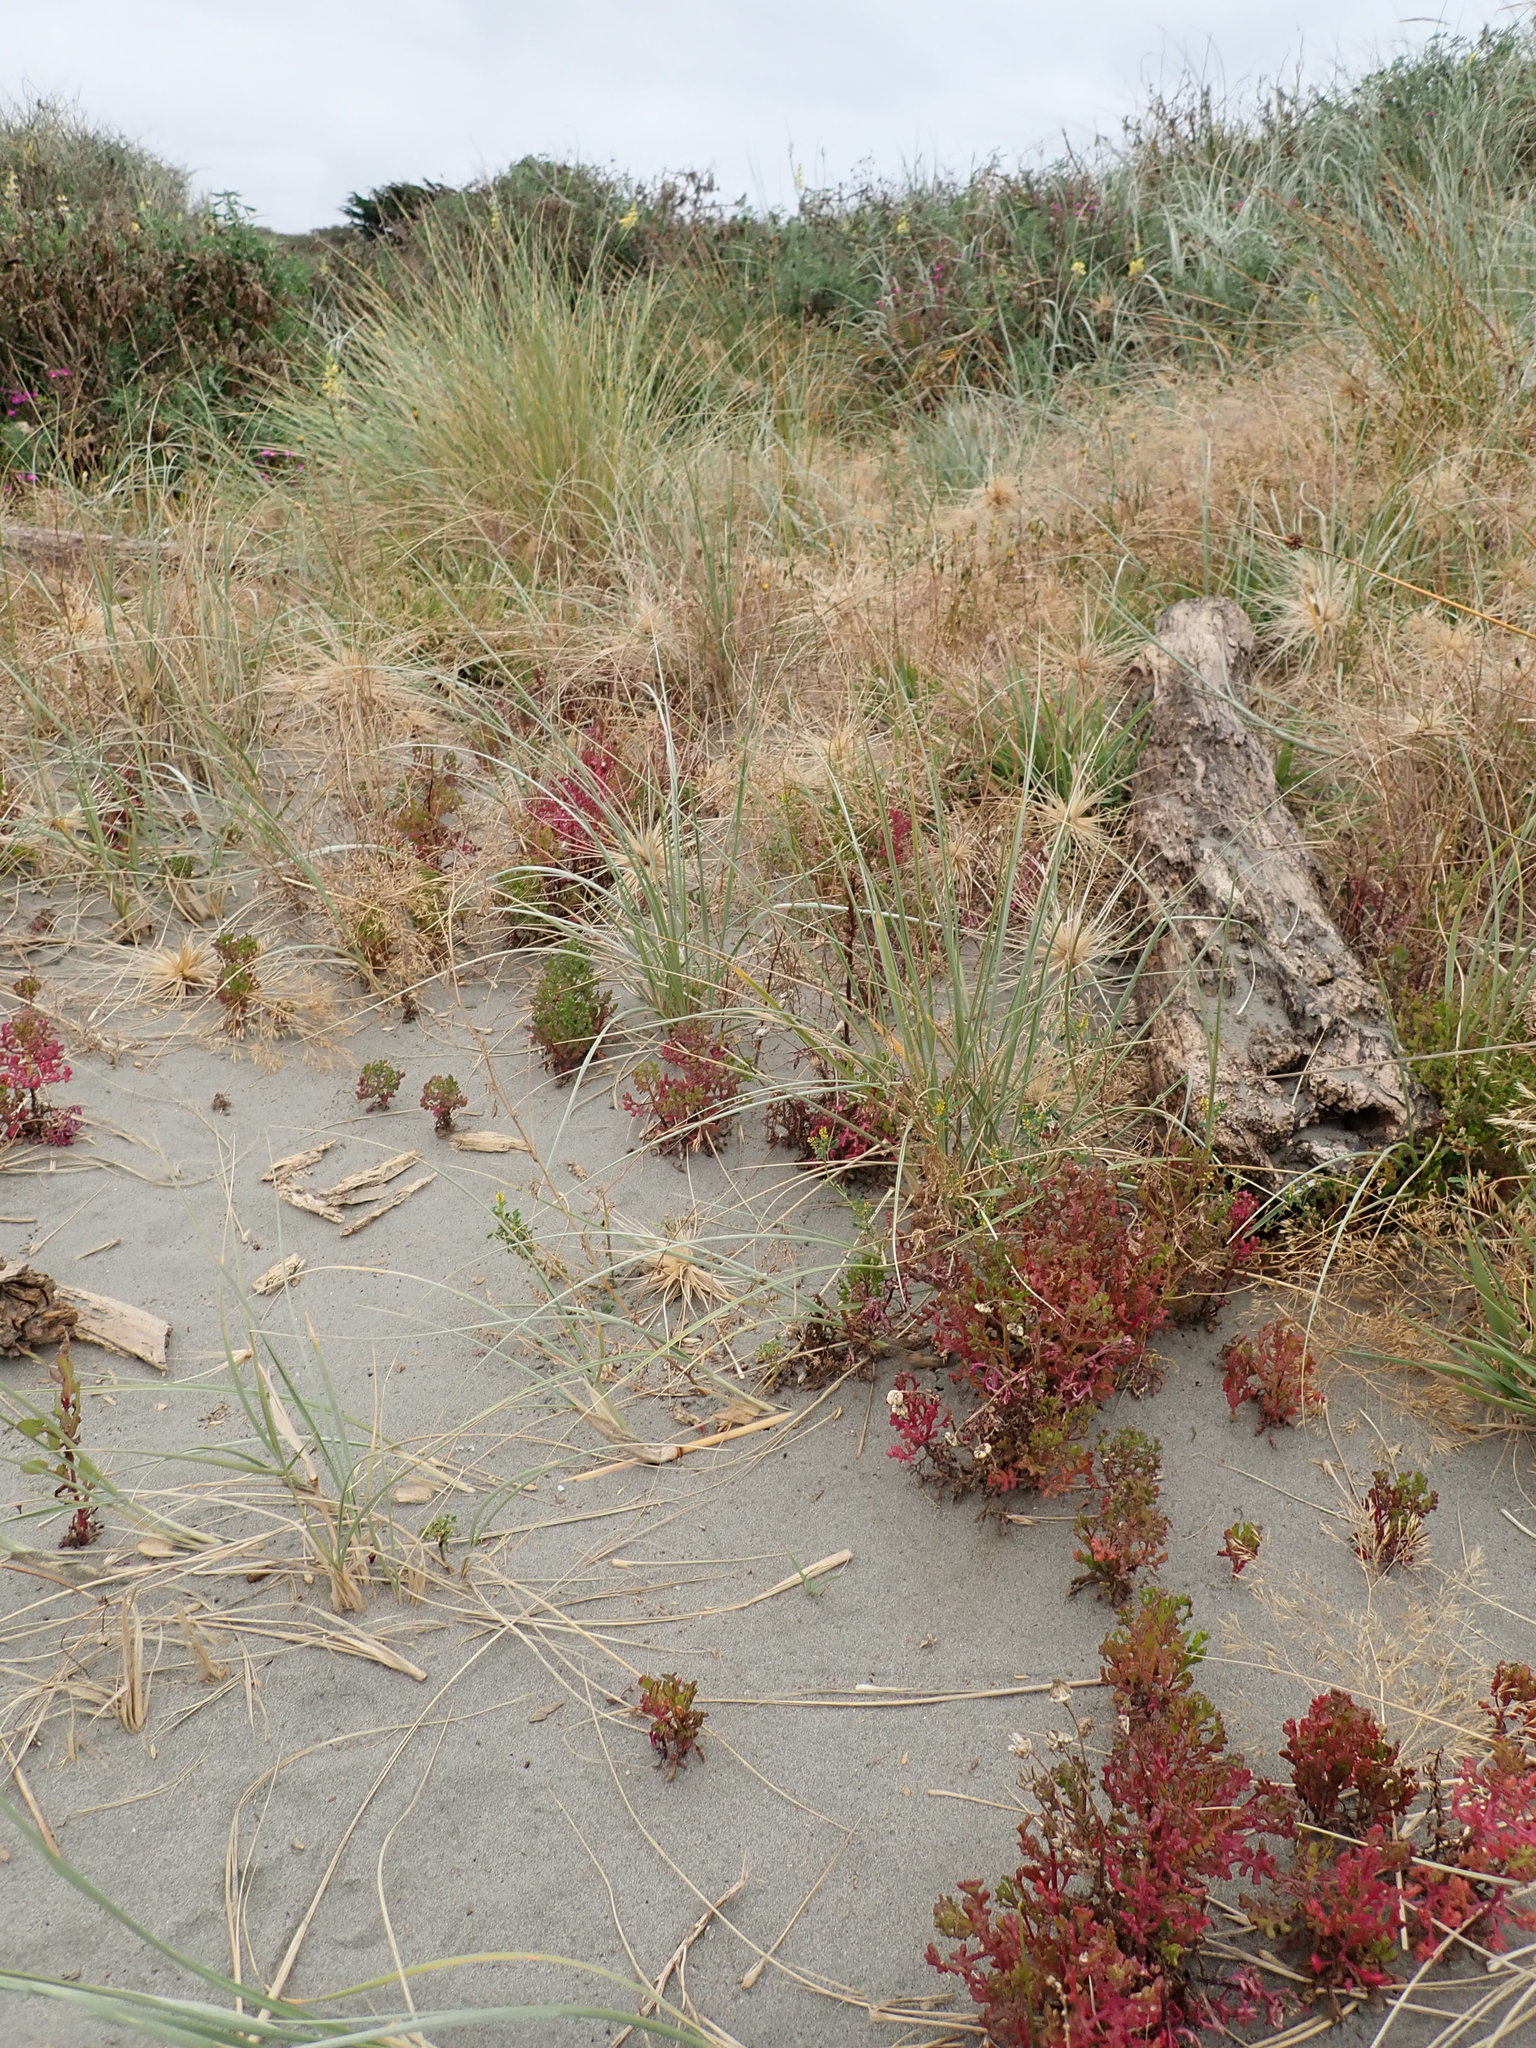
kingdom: Plantae
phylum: Tracheophyta
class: Magnoliopsida
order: Fabales
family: Fabaceae
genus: Melilotus
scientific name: Melilotus indicus
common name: Small melilot
